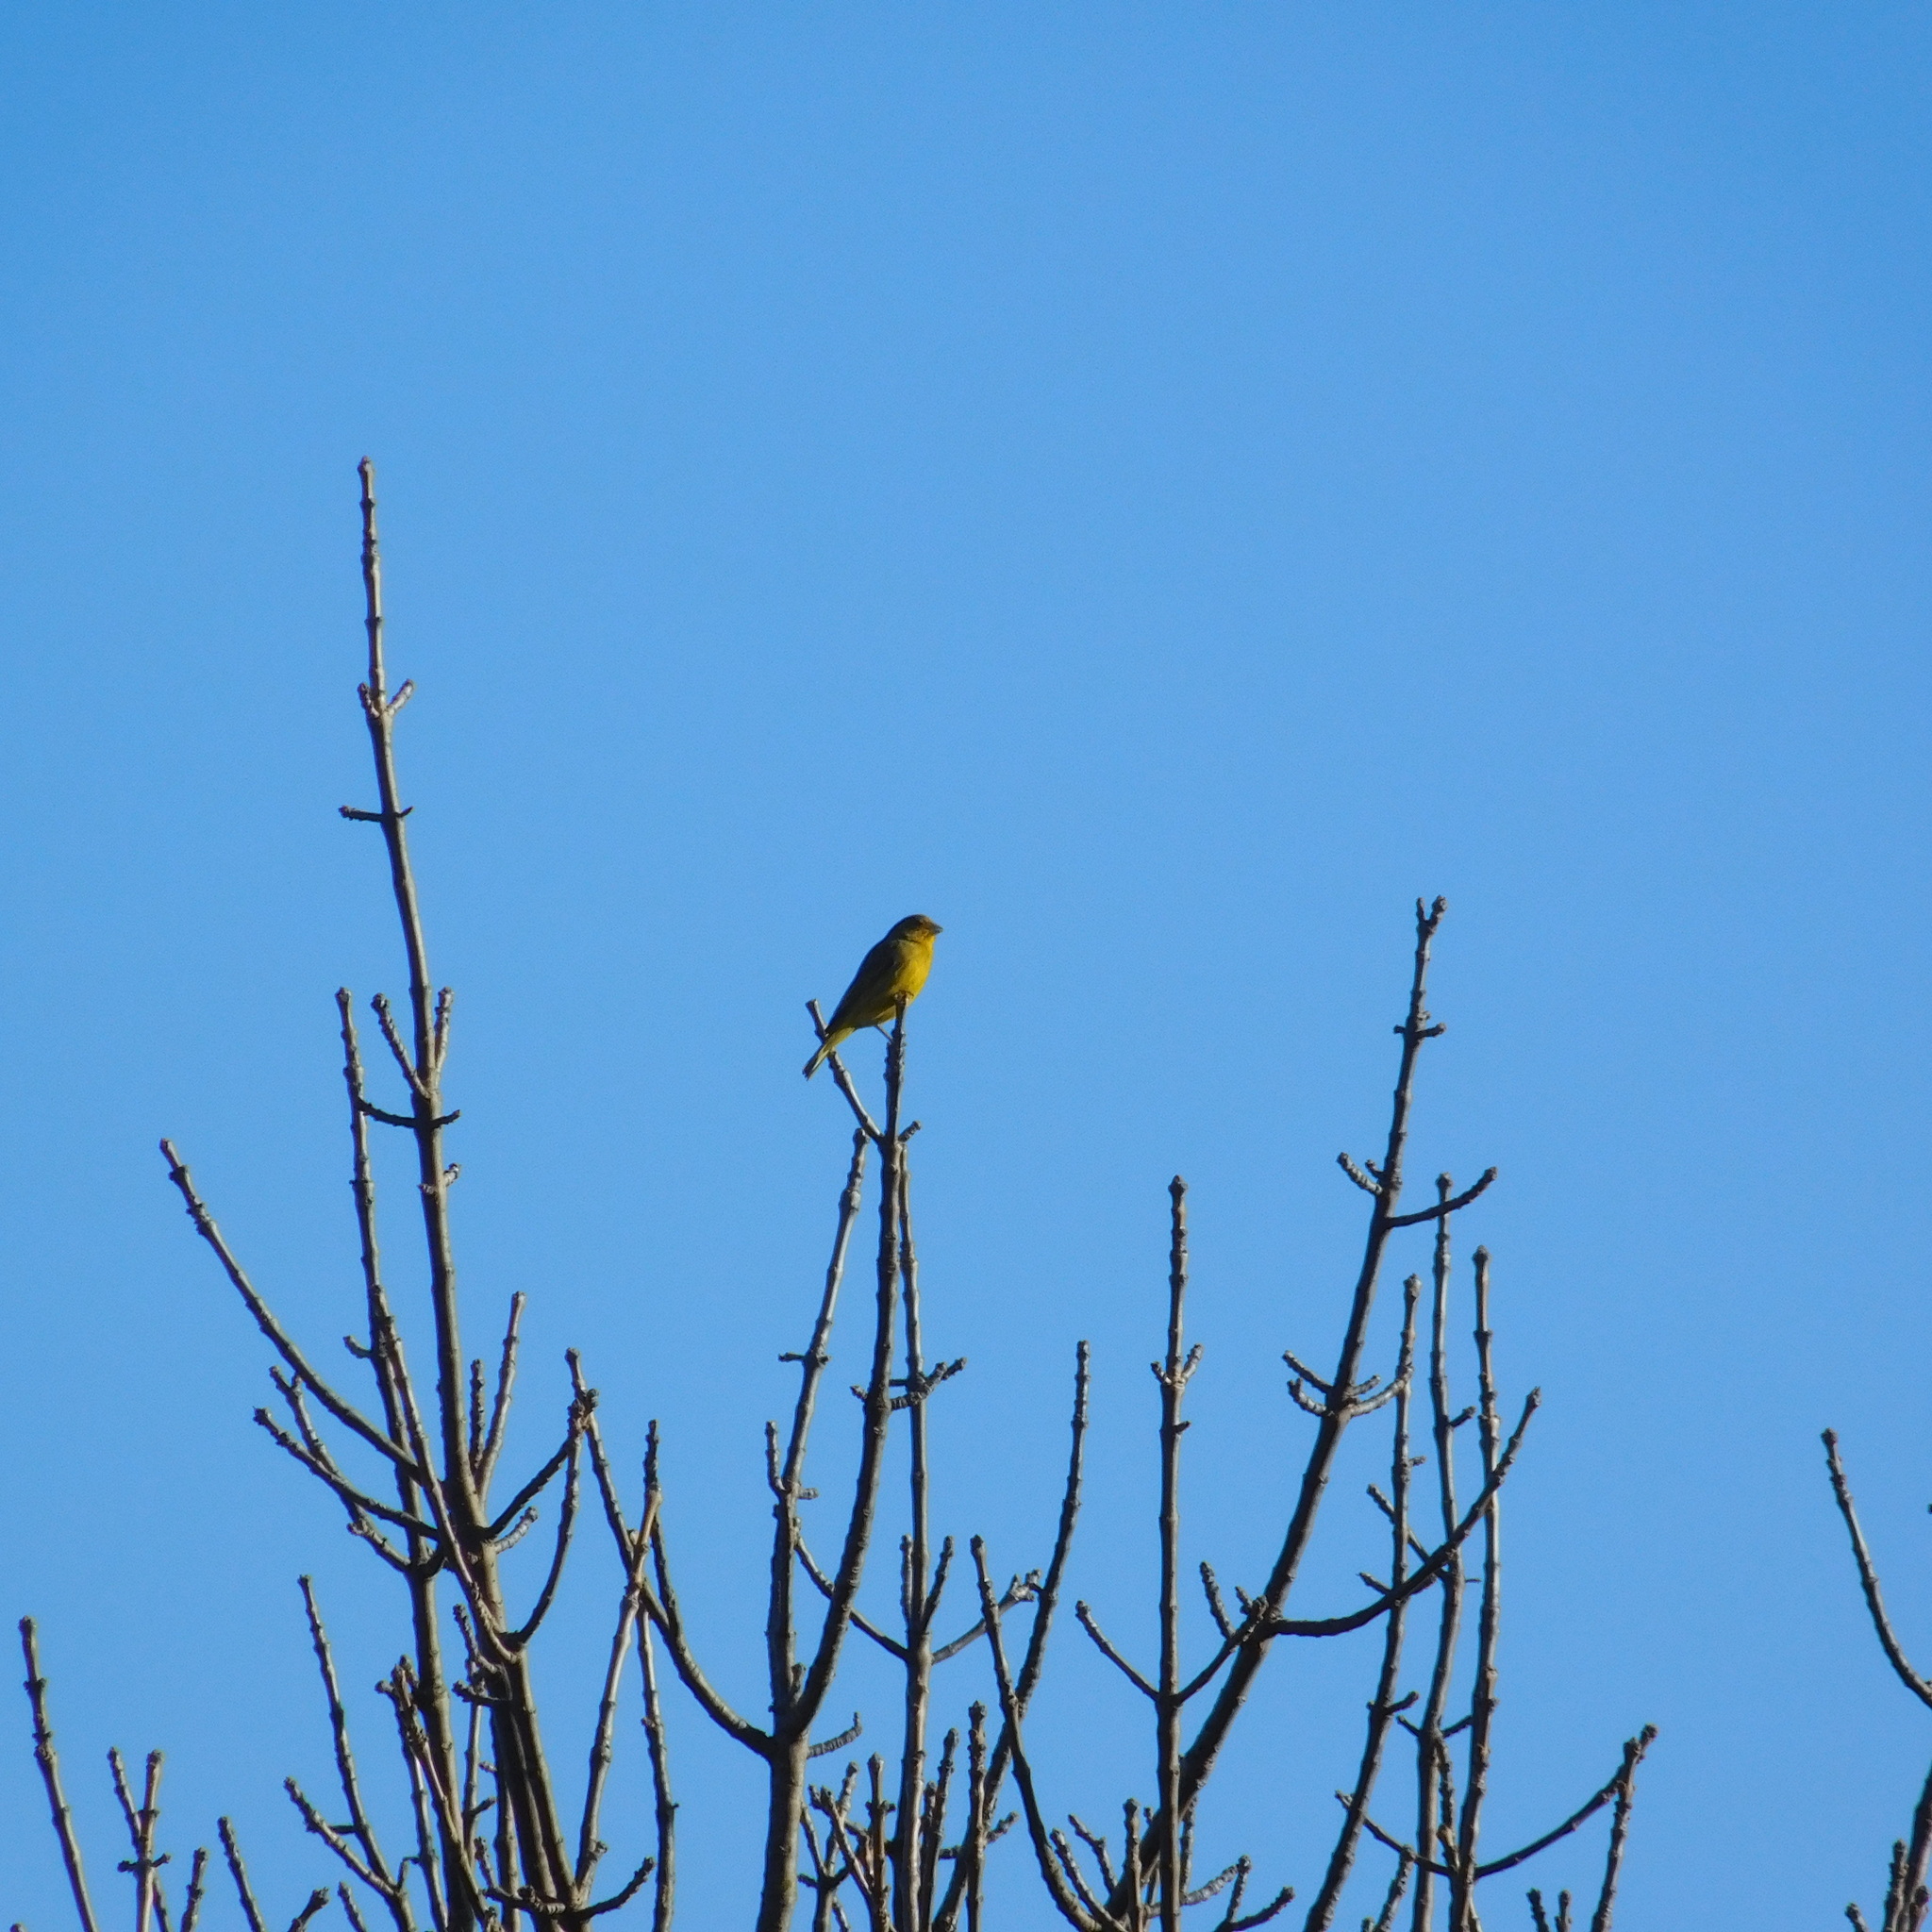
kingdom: Animalia
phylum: Chordata
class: Aves
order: Passeriformes
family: Thraupidae
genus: Sicalis
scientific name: Sicalis flaveola
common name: Saffron finch
